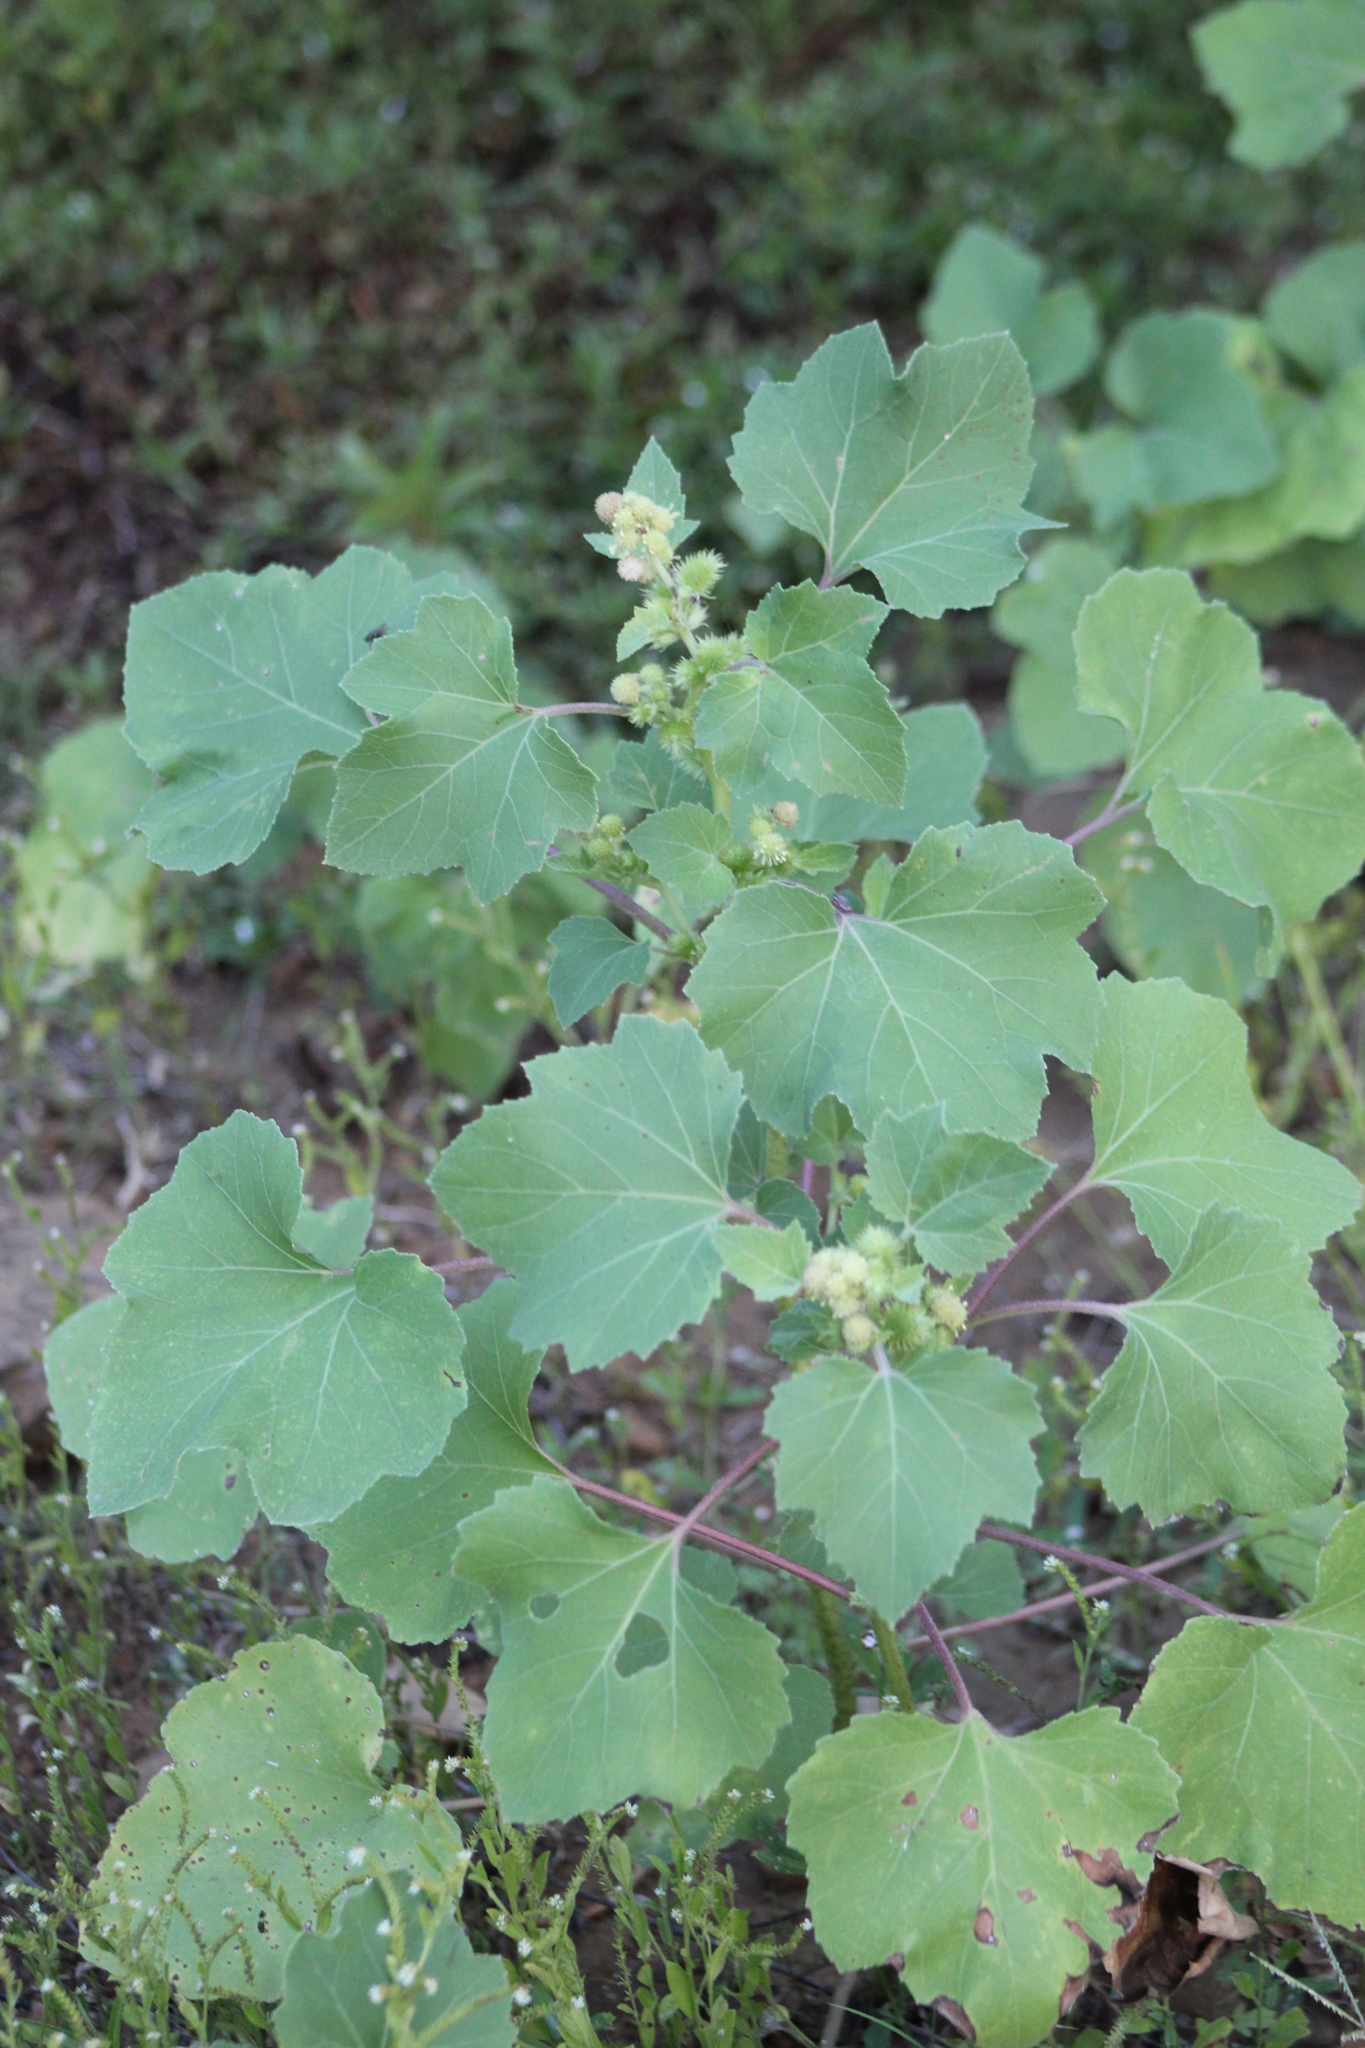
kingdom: Plantae
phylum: Tracheophyta
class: Magnoliopsida
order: Asterales
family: Asteraceae
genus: Xanthium
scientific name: Xanthium strumarium
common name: Rough cocklebur
